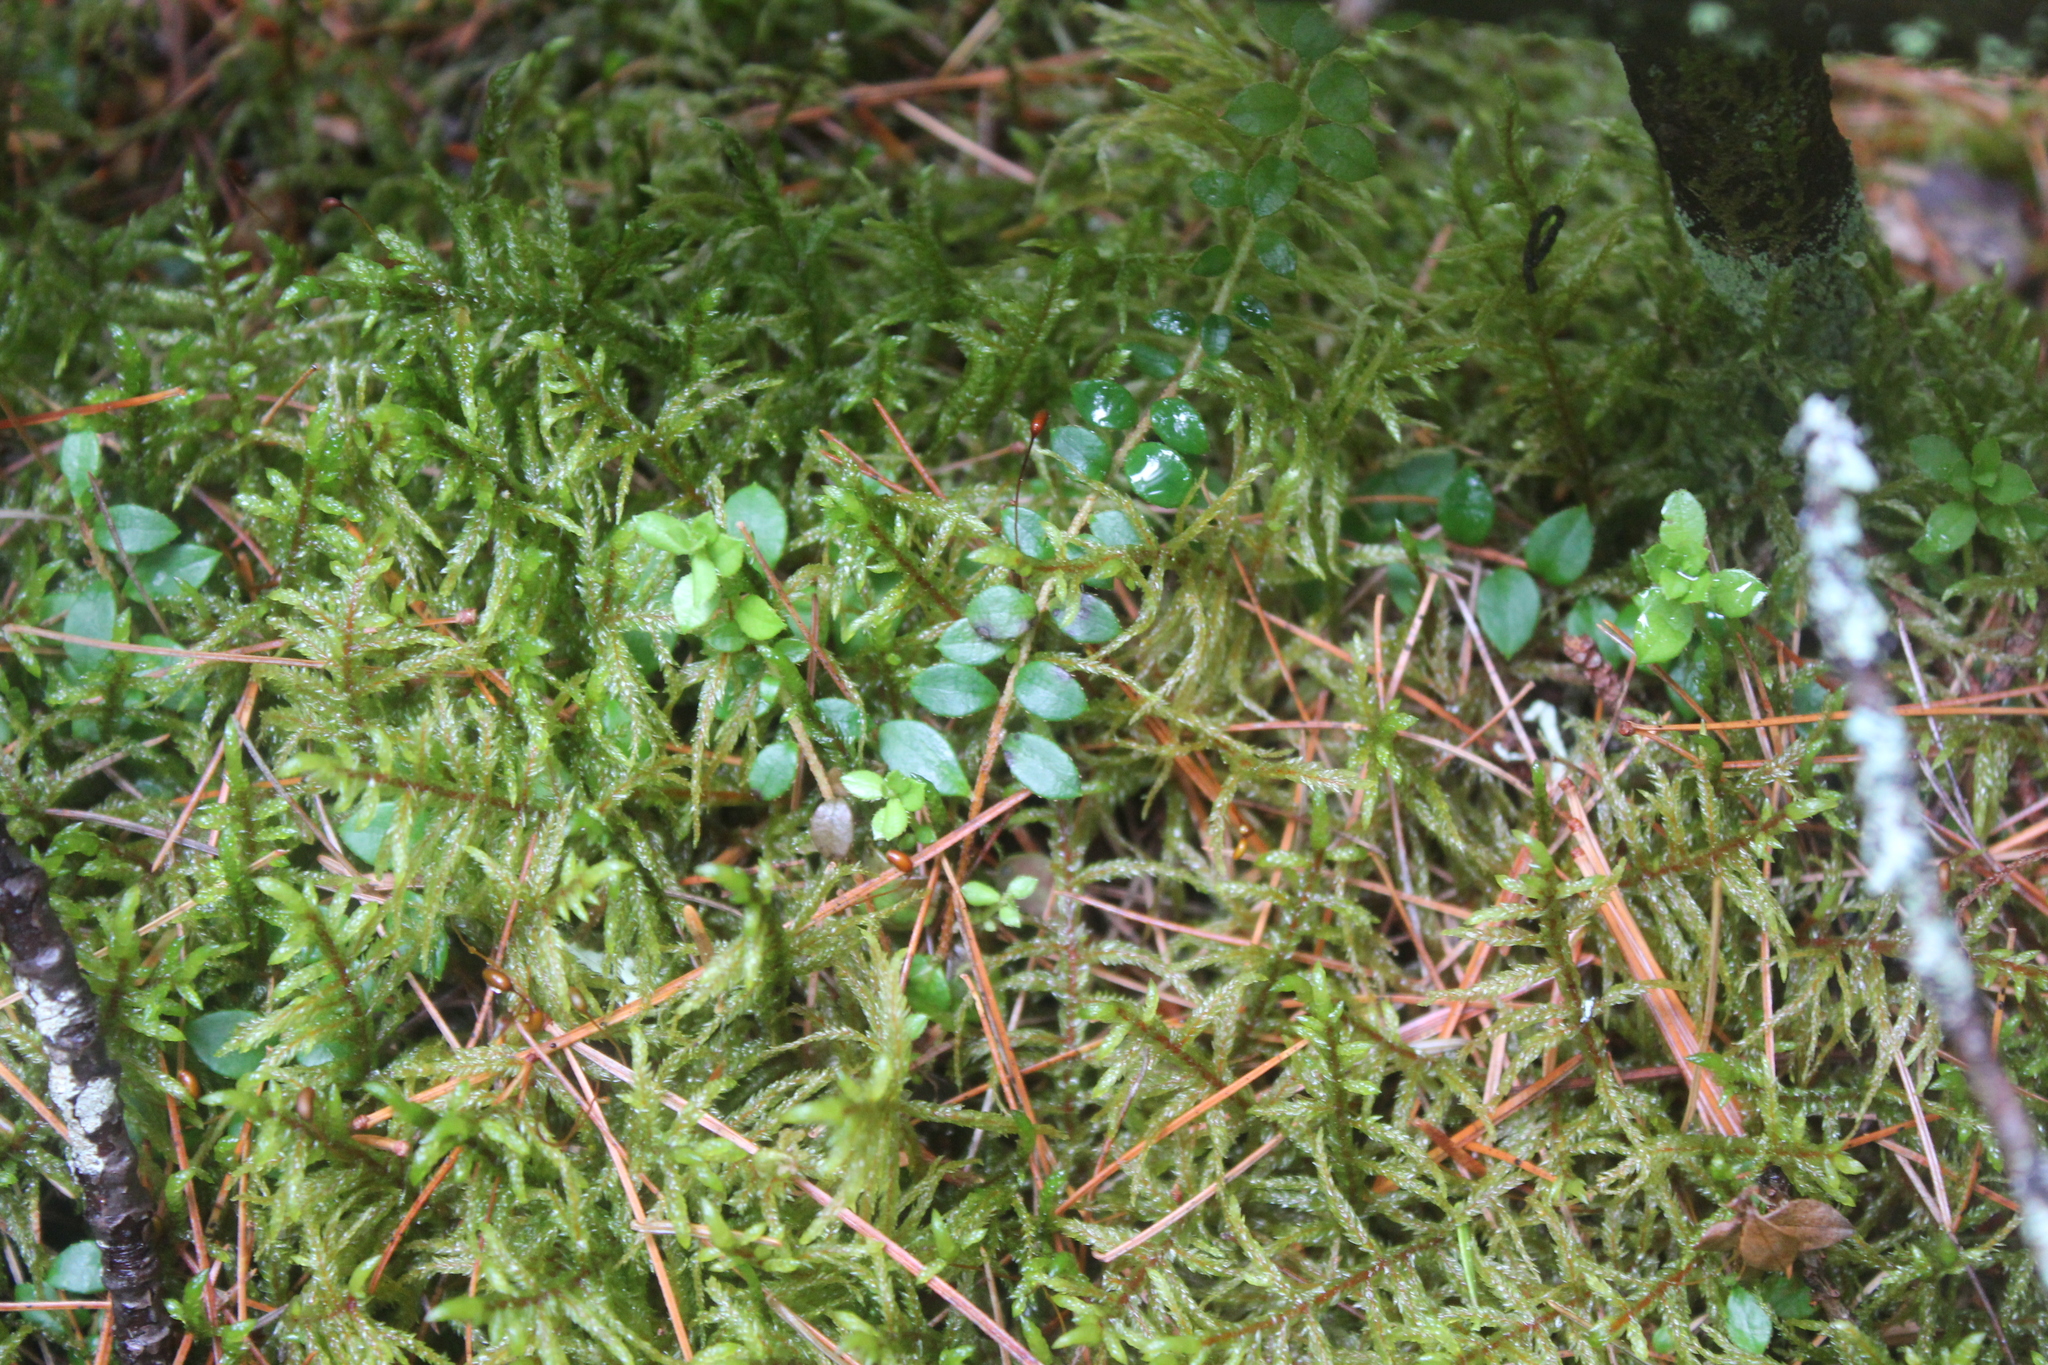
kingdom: Plantae
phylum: Tracheophyta
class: Magnoliopsida
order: Ericales
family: Ericaceae
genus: Gaultheria
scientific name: Gaultheria hispidula
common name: Cancer wintergreen
